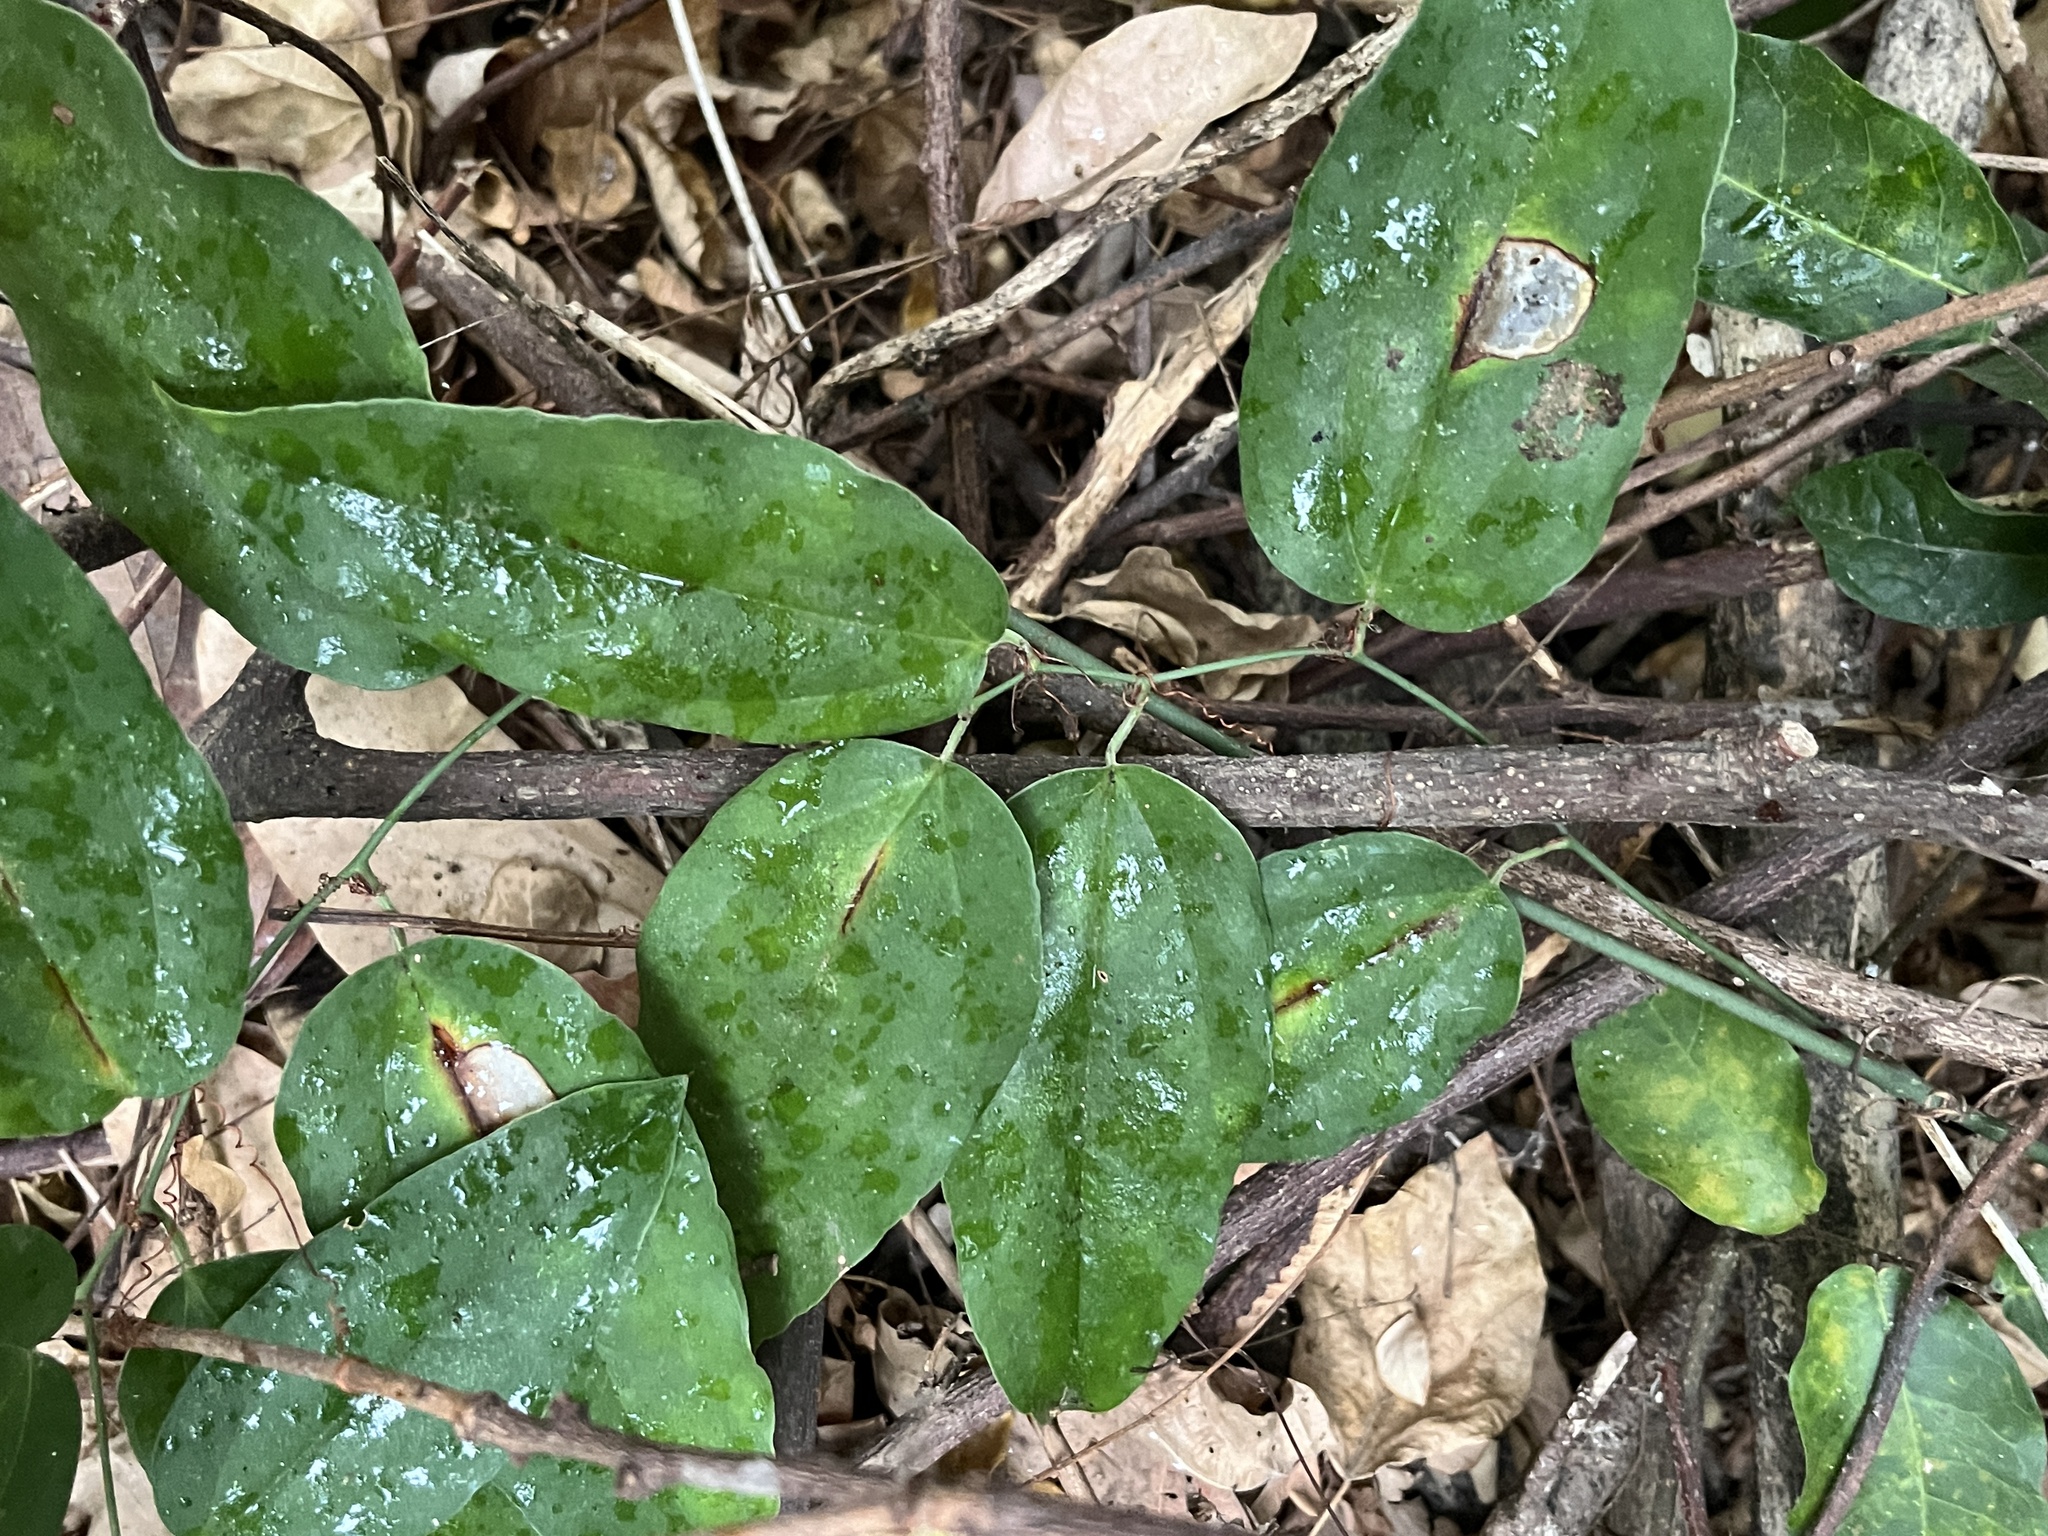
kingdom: Plantae
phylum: Tracheophyta
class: Liliopsida
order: Liliales
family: Smilacaceae
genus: Smilax
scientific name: Smilax china
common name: Chinaroot
